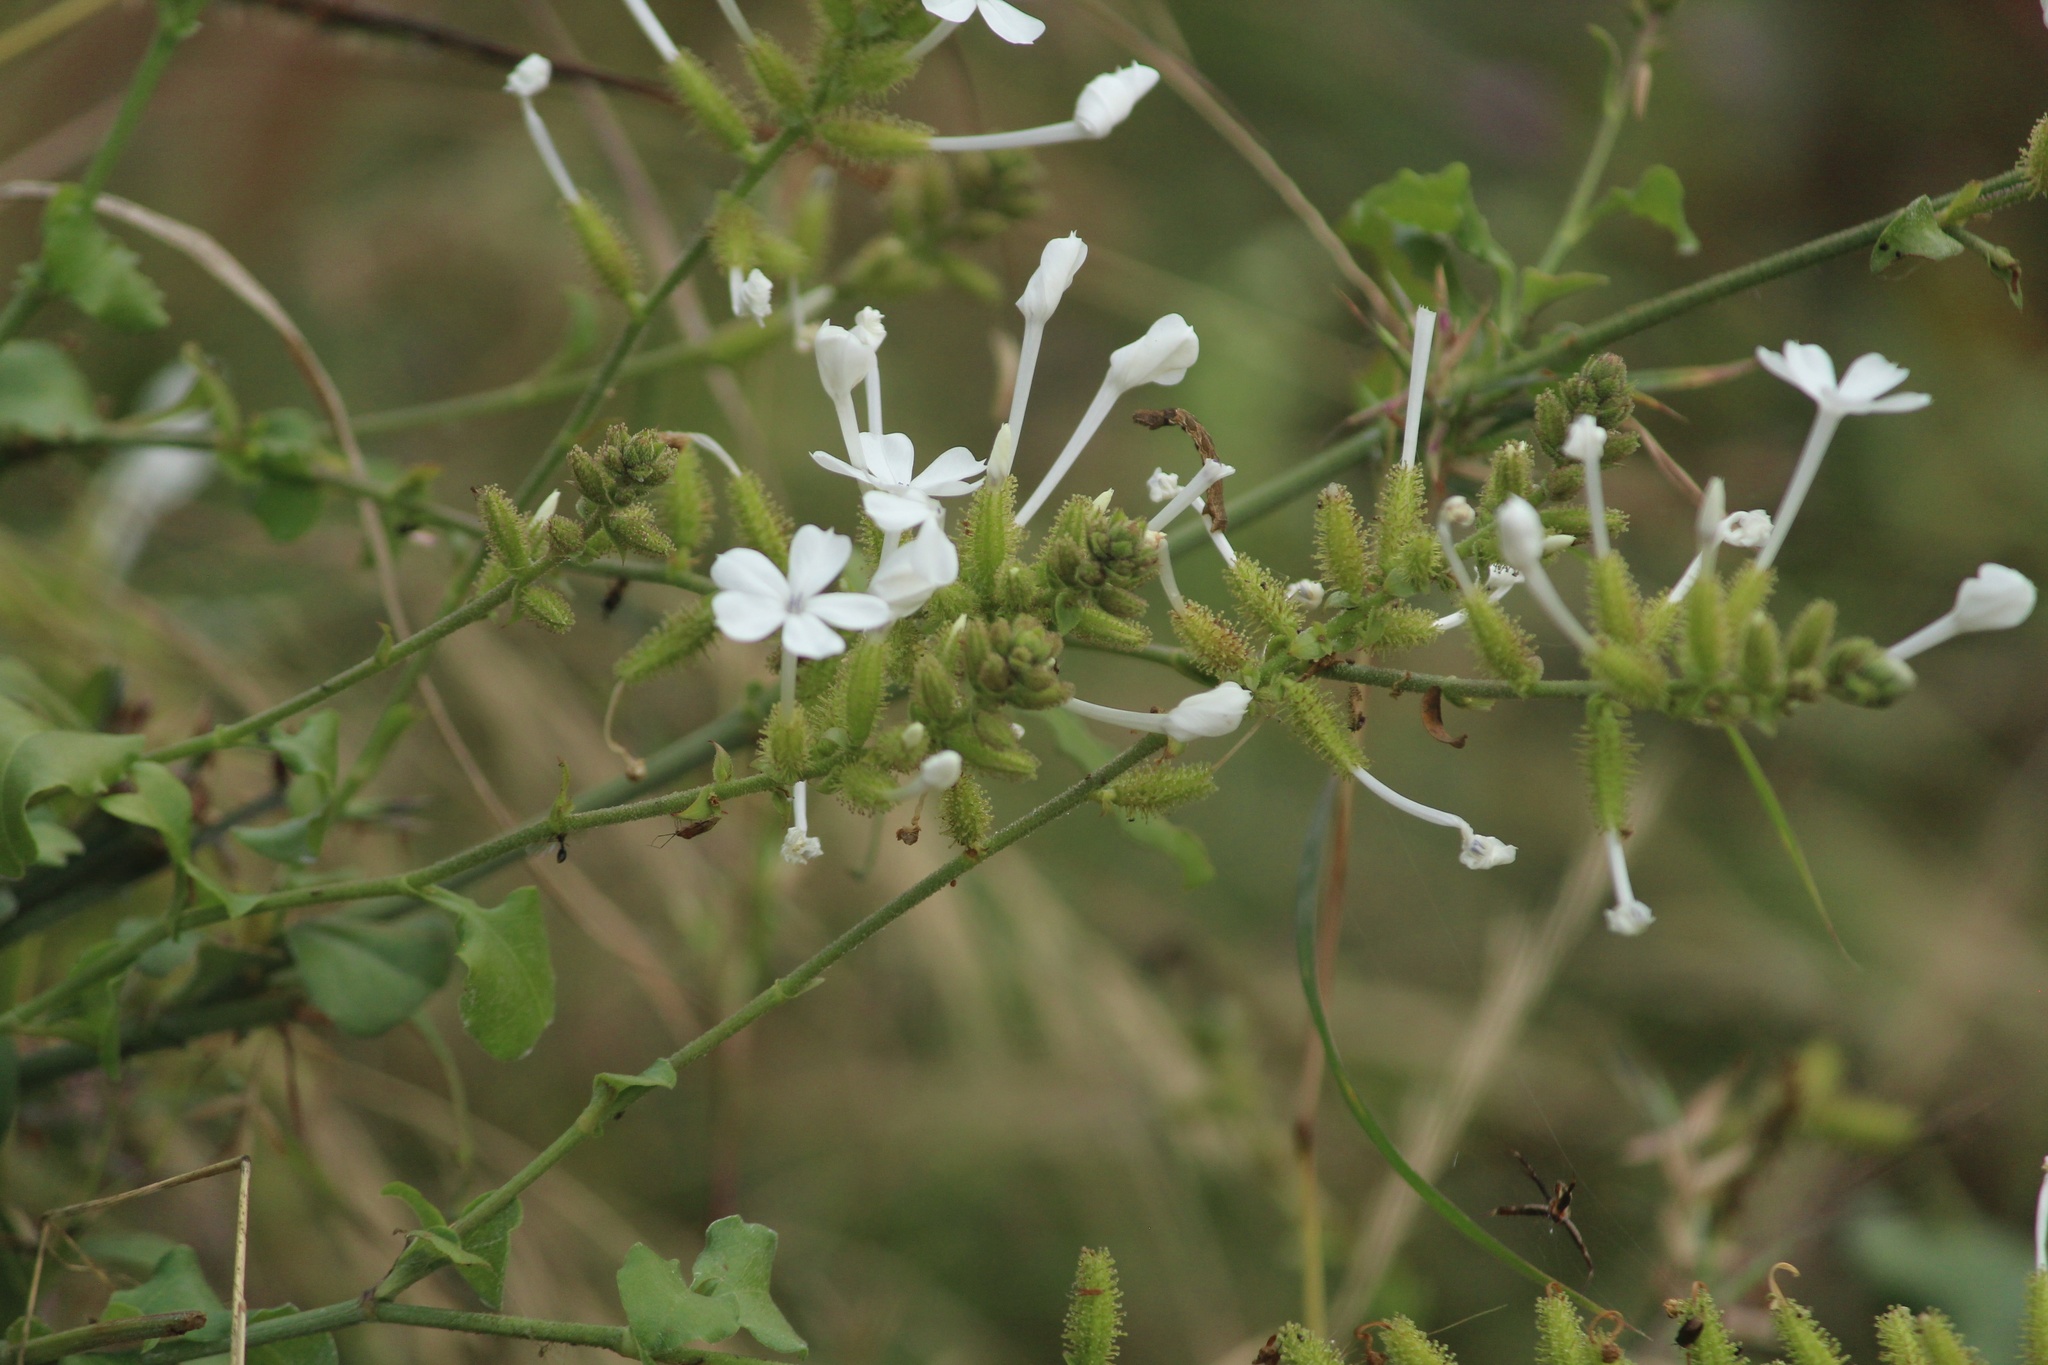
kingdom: Plantae
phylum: Tracheophyta
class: Magnoliopsida
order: Caryophyllales
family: Plumbaginaceae
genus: Plumbago
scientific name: Plumbago zeylanica
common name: Doctorbush
